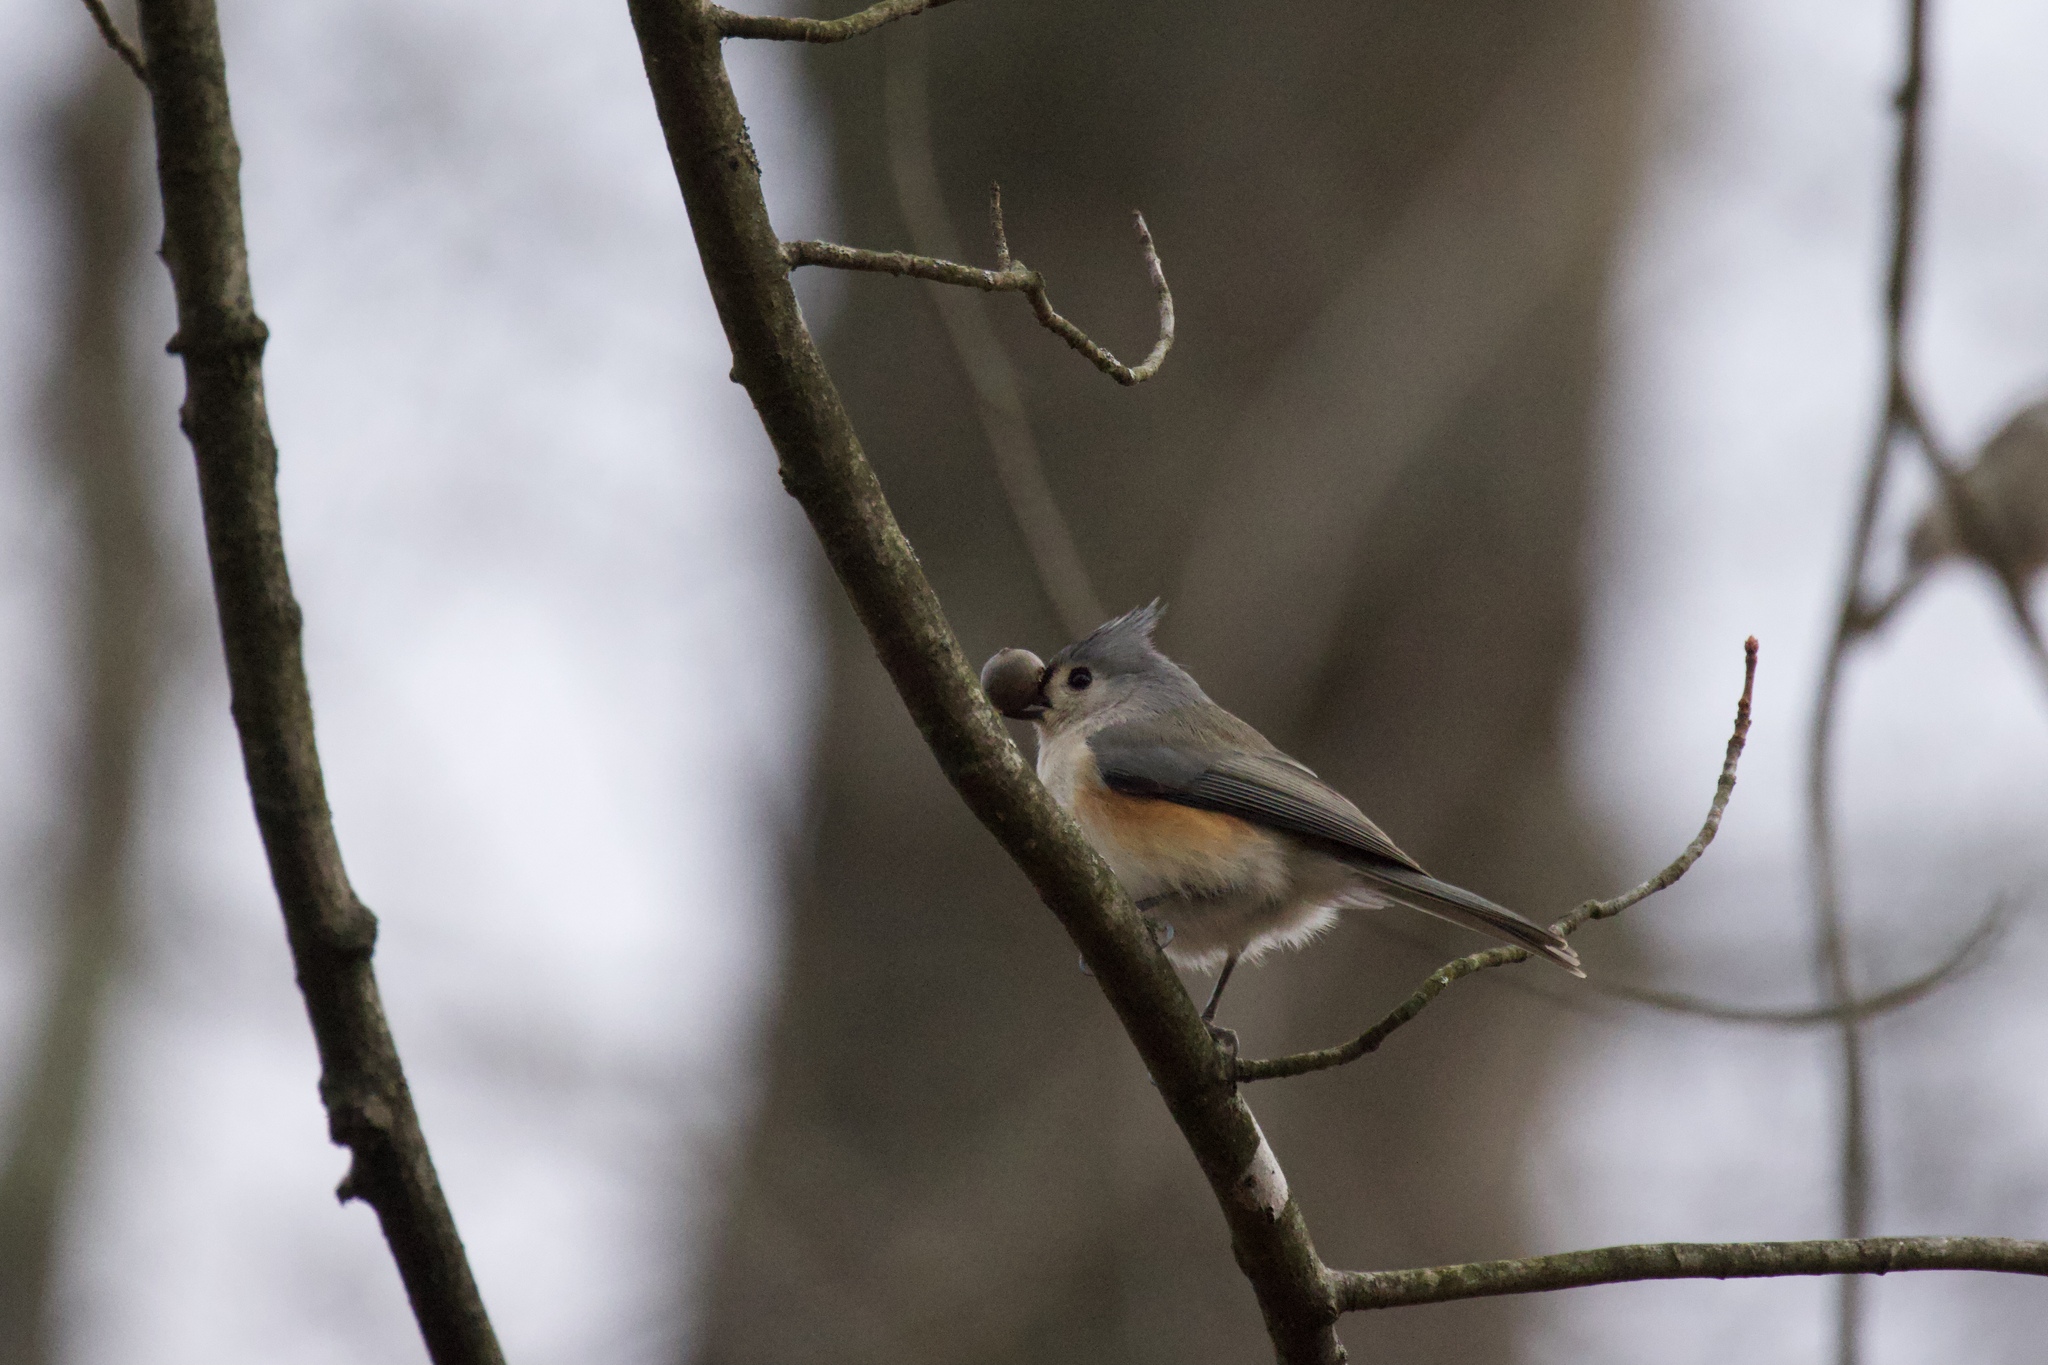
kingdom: Animalia
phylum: Chordata
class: Aves
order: Passeriformes
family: Paridae
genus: Baeolophus
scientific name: Baeolophus bicolor
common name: Tufted titmouse
